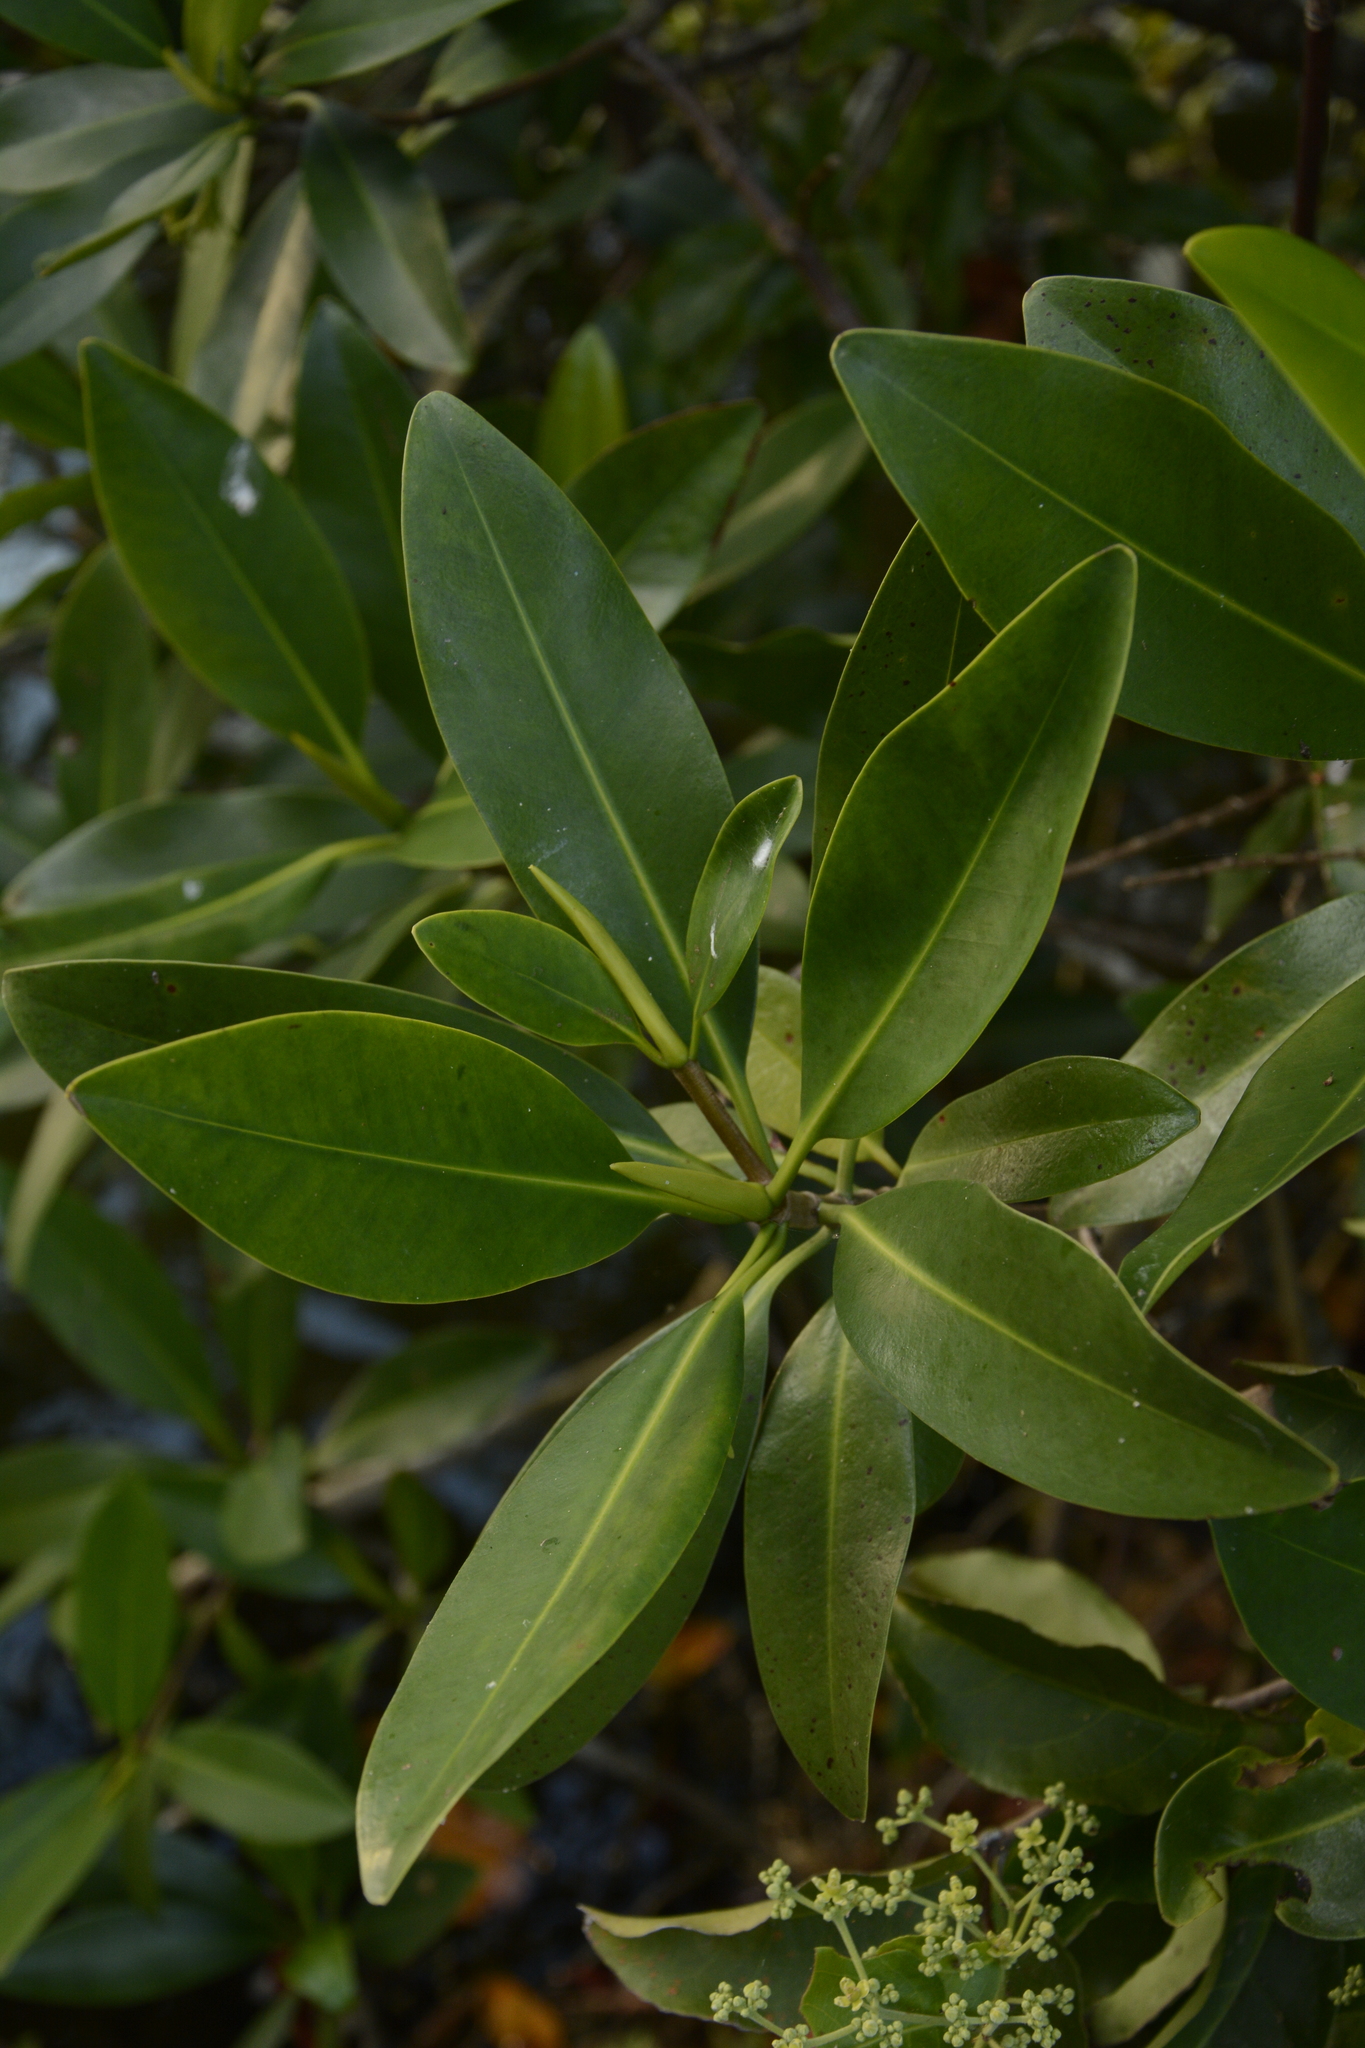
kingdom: Plantae
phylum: Tracheophyta
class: Magnoliopsida
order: Malpighiales
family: Rhizophoraceae
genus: Rhizophora
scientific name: Rhizophora mangle
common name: Red mangrove
